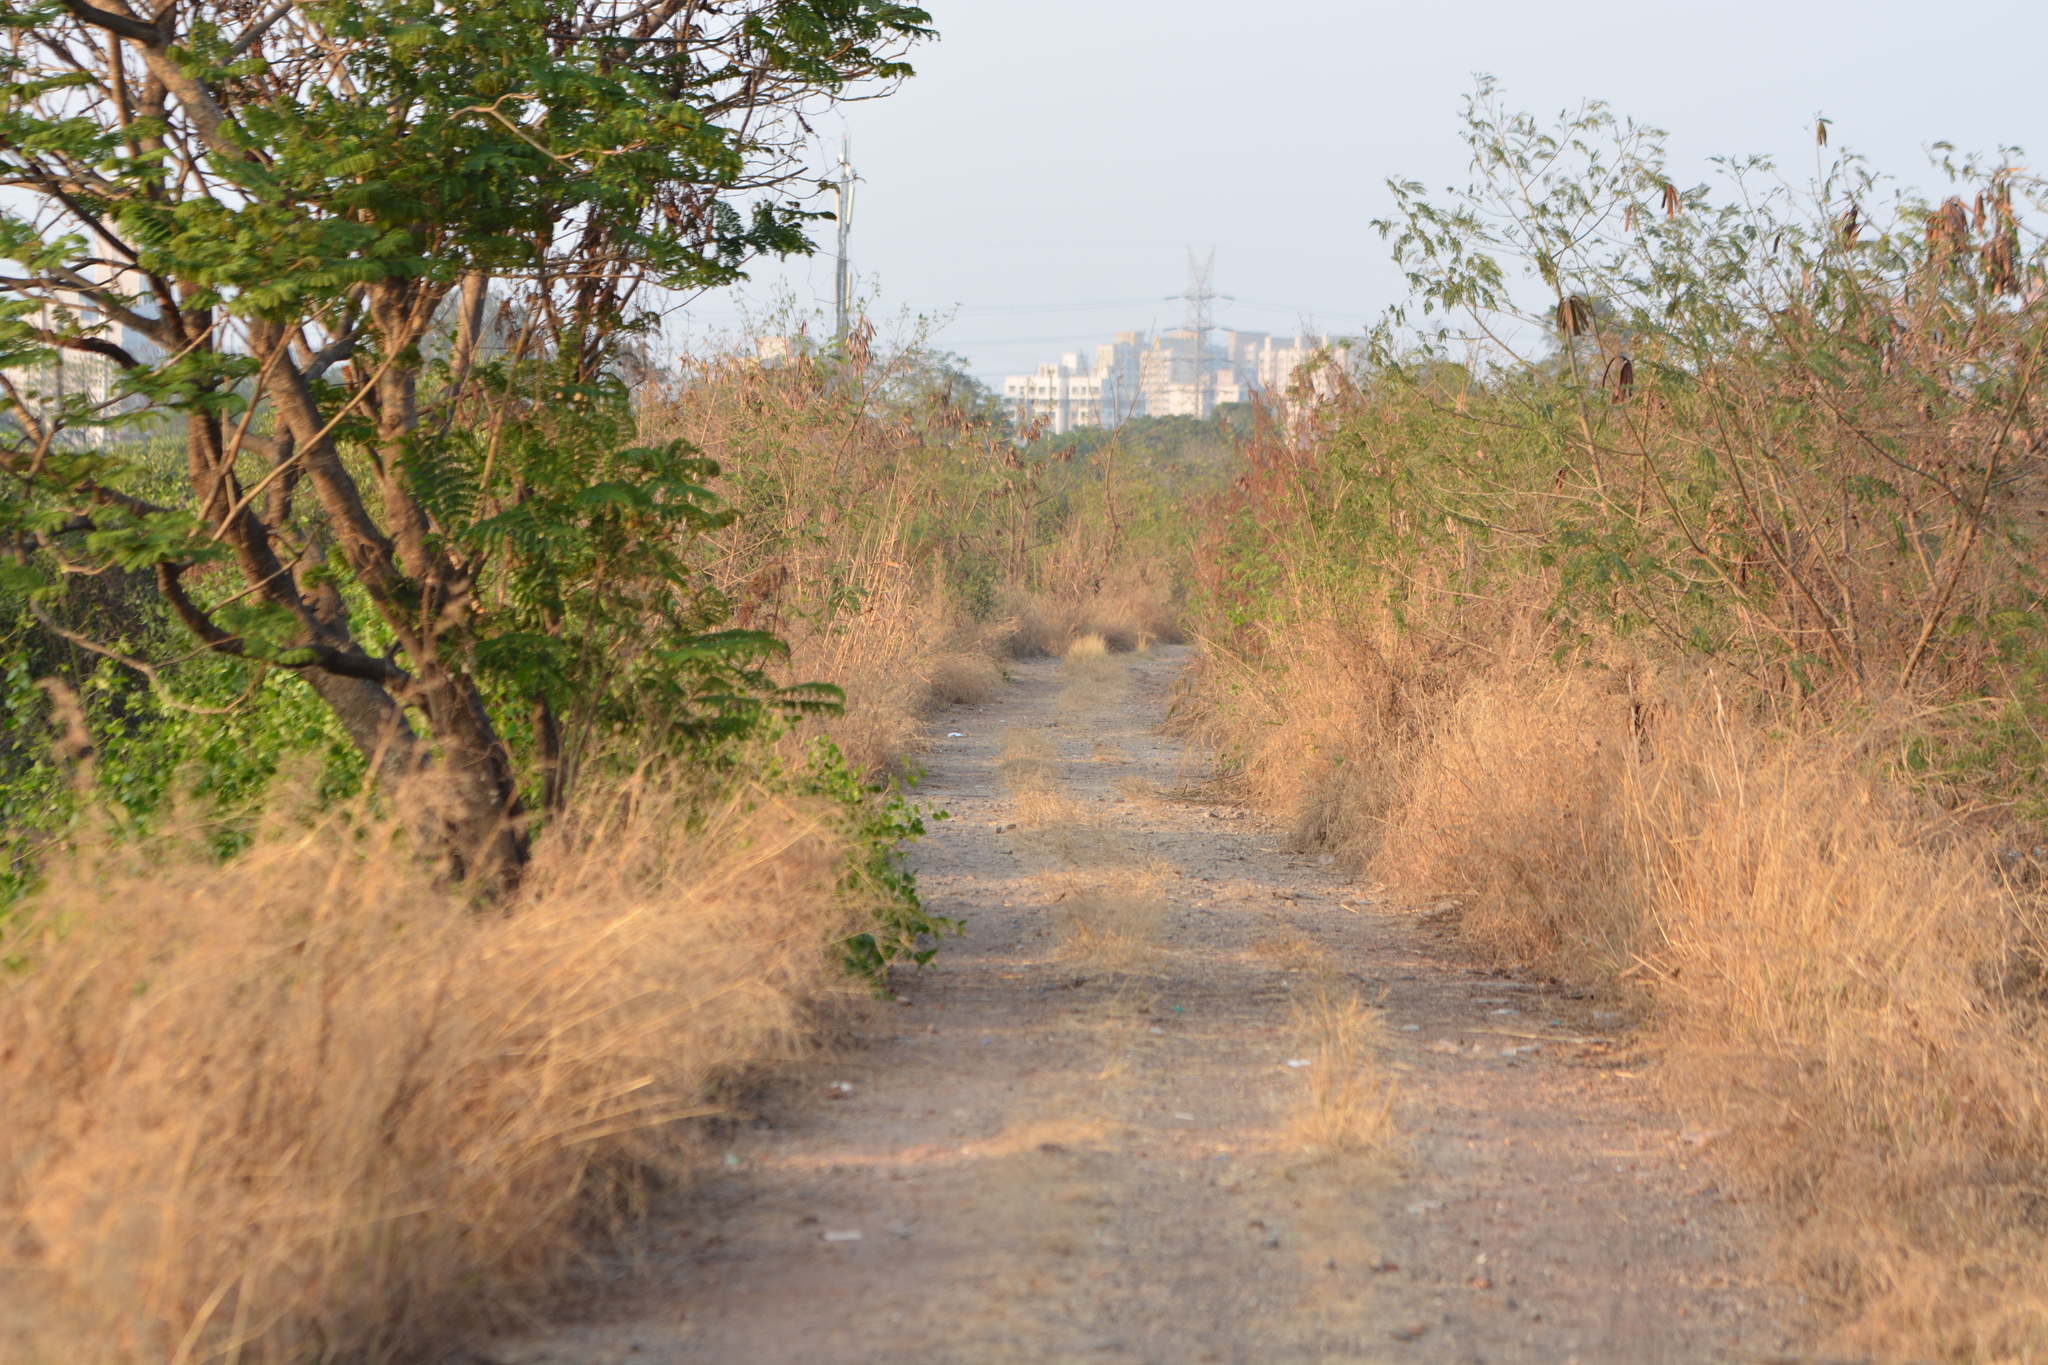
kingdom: Plantae
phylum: Tracheophyta
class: Magnoliopsida
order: Asterales
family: Asteraceae
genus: Blumea
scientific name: Blumea obliqua
